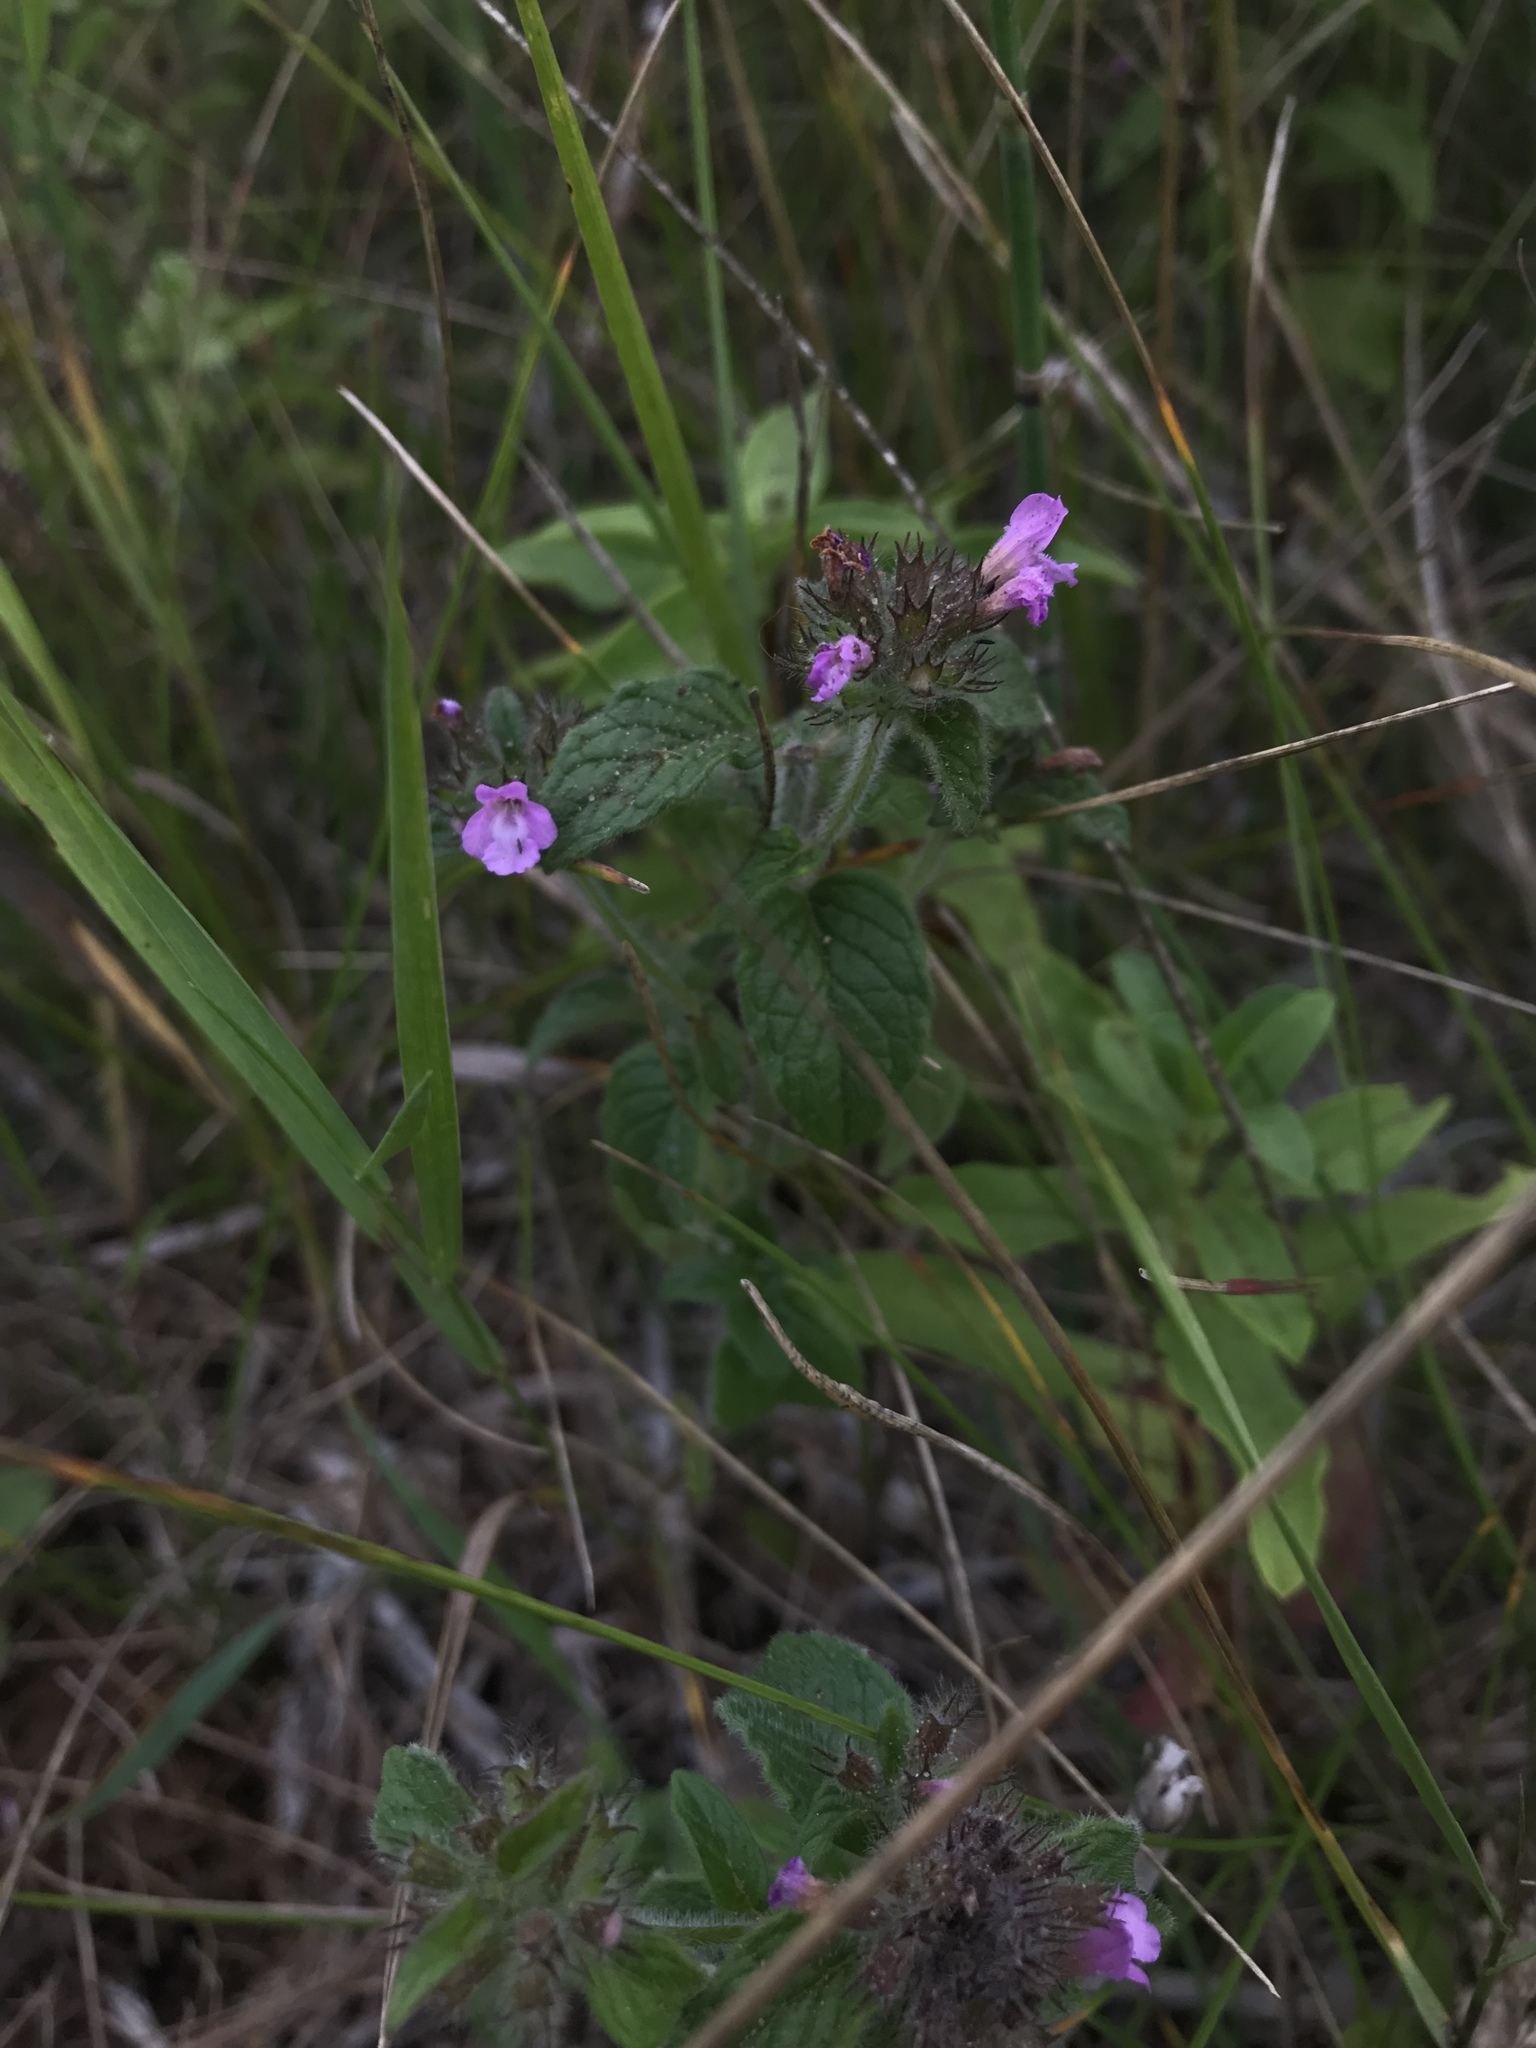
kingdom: Plantae
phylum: Tracheophyta
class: Magnoliopsida
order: Lamiales
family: Lamiaceae
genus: Clinopodium
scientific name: Clinopodium vulgare
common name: Wild basil
